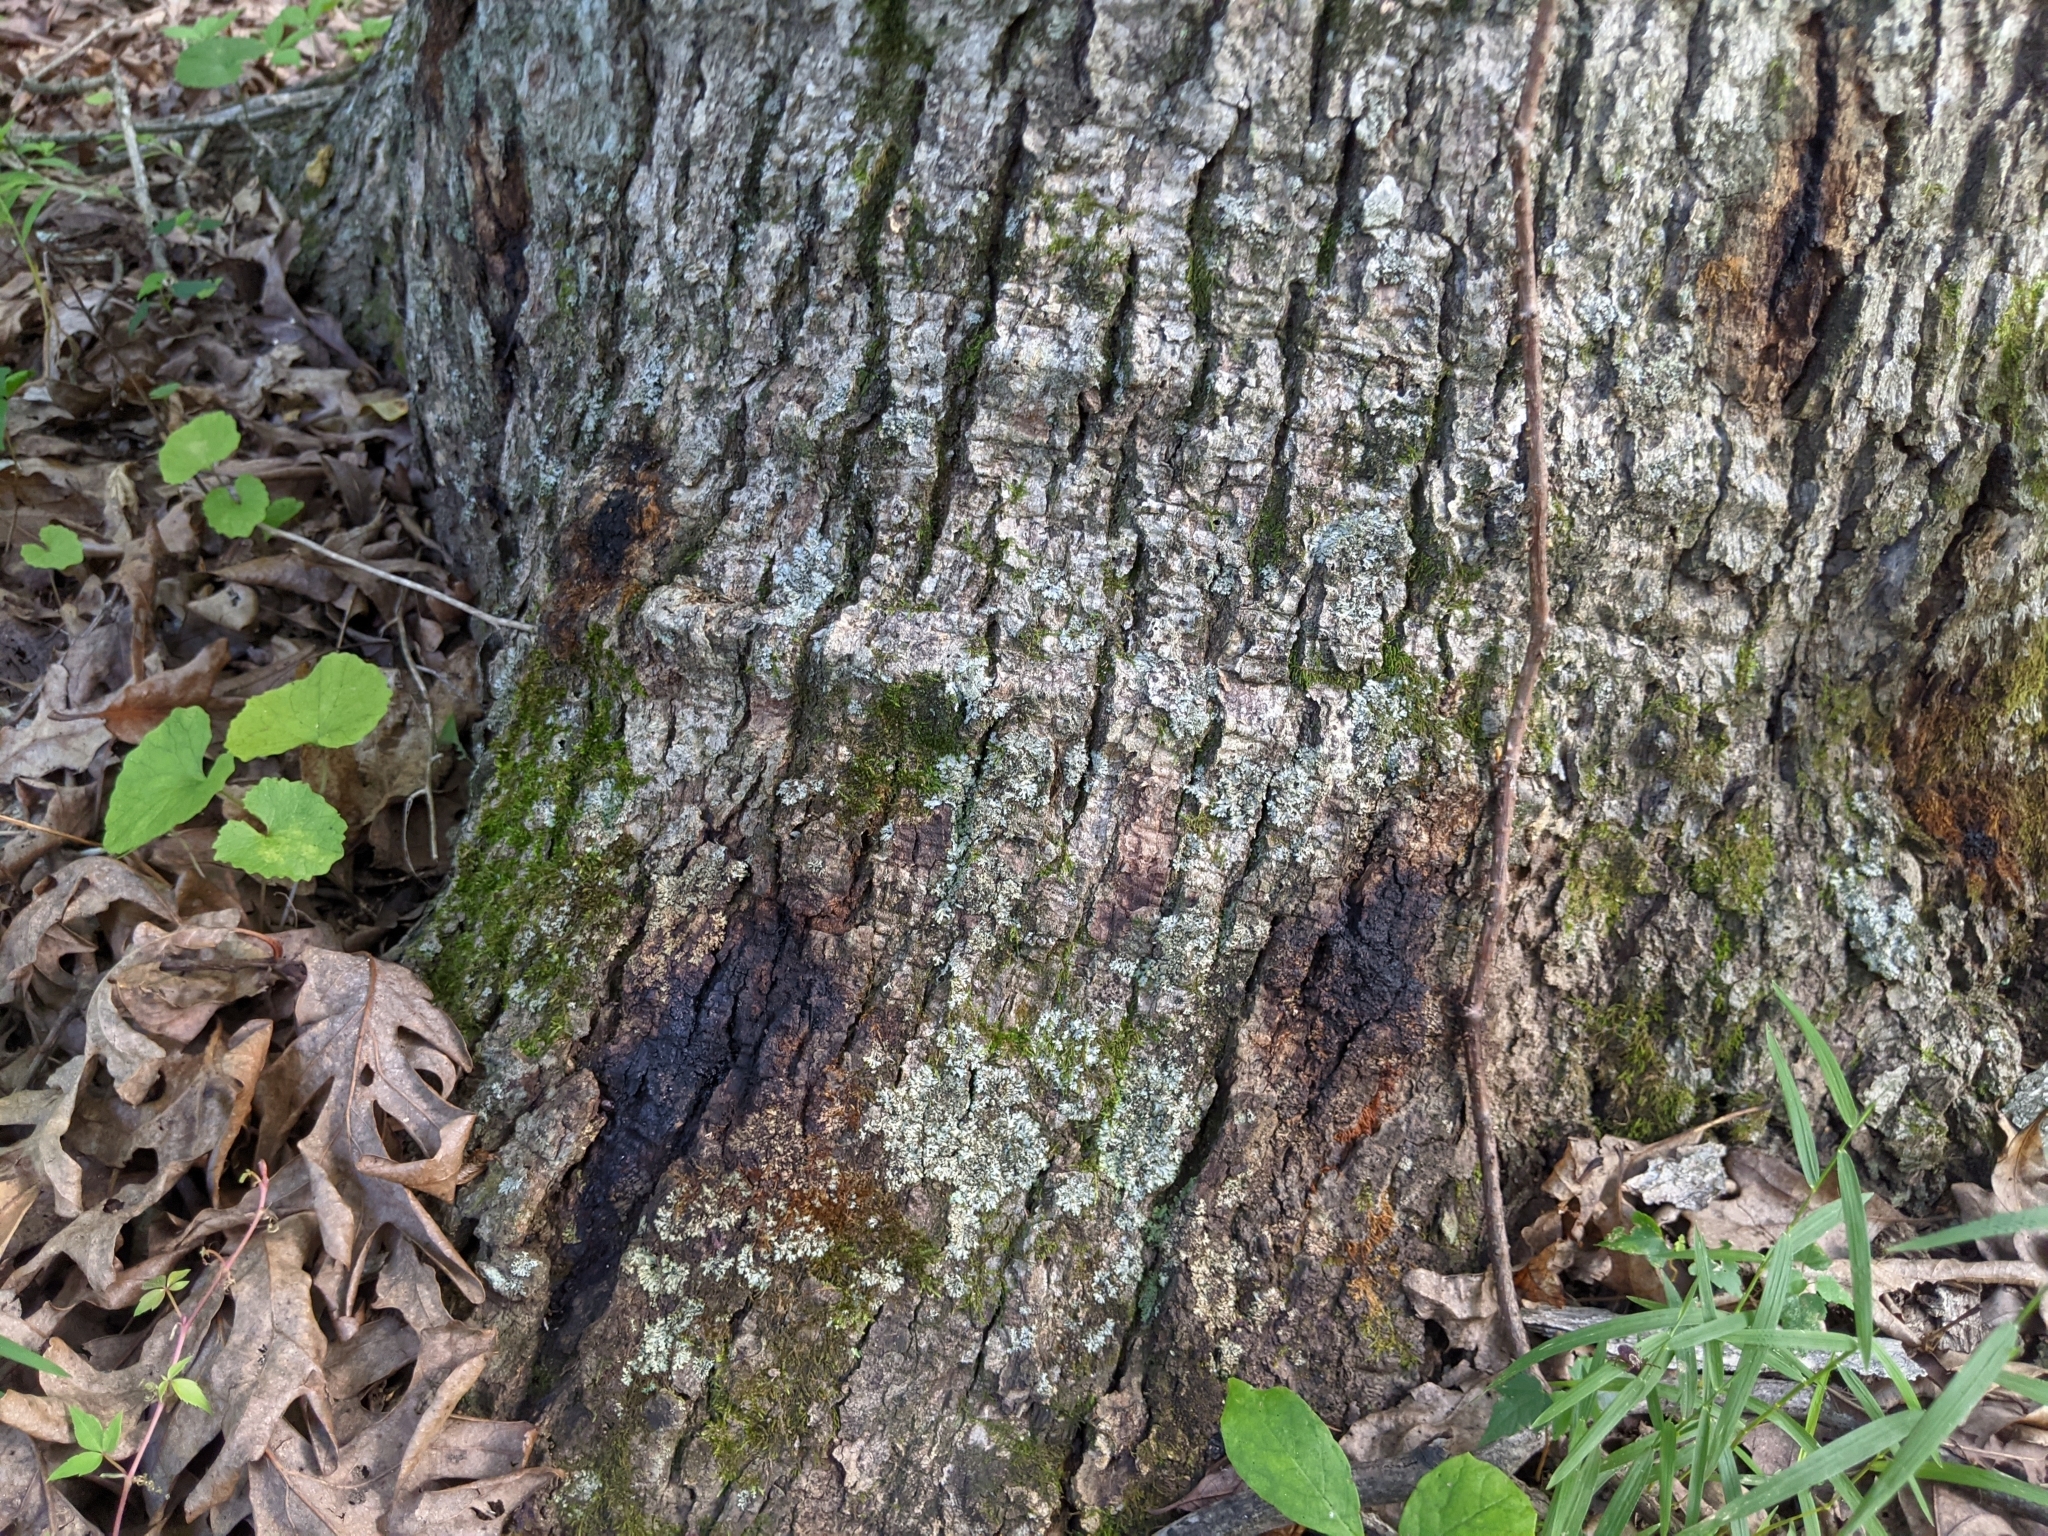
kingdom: Plantae
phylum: Tracheophyta
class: Magnoliopsida
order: Fagales
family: Fagaceae
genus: Quercus
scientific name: Quercus alba
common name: White oak
